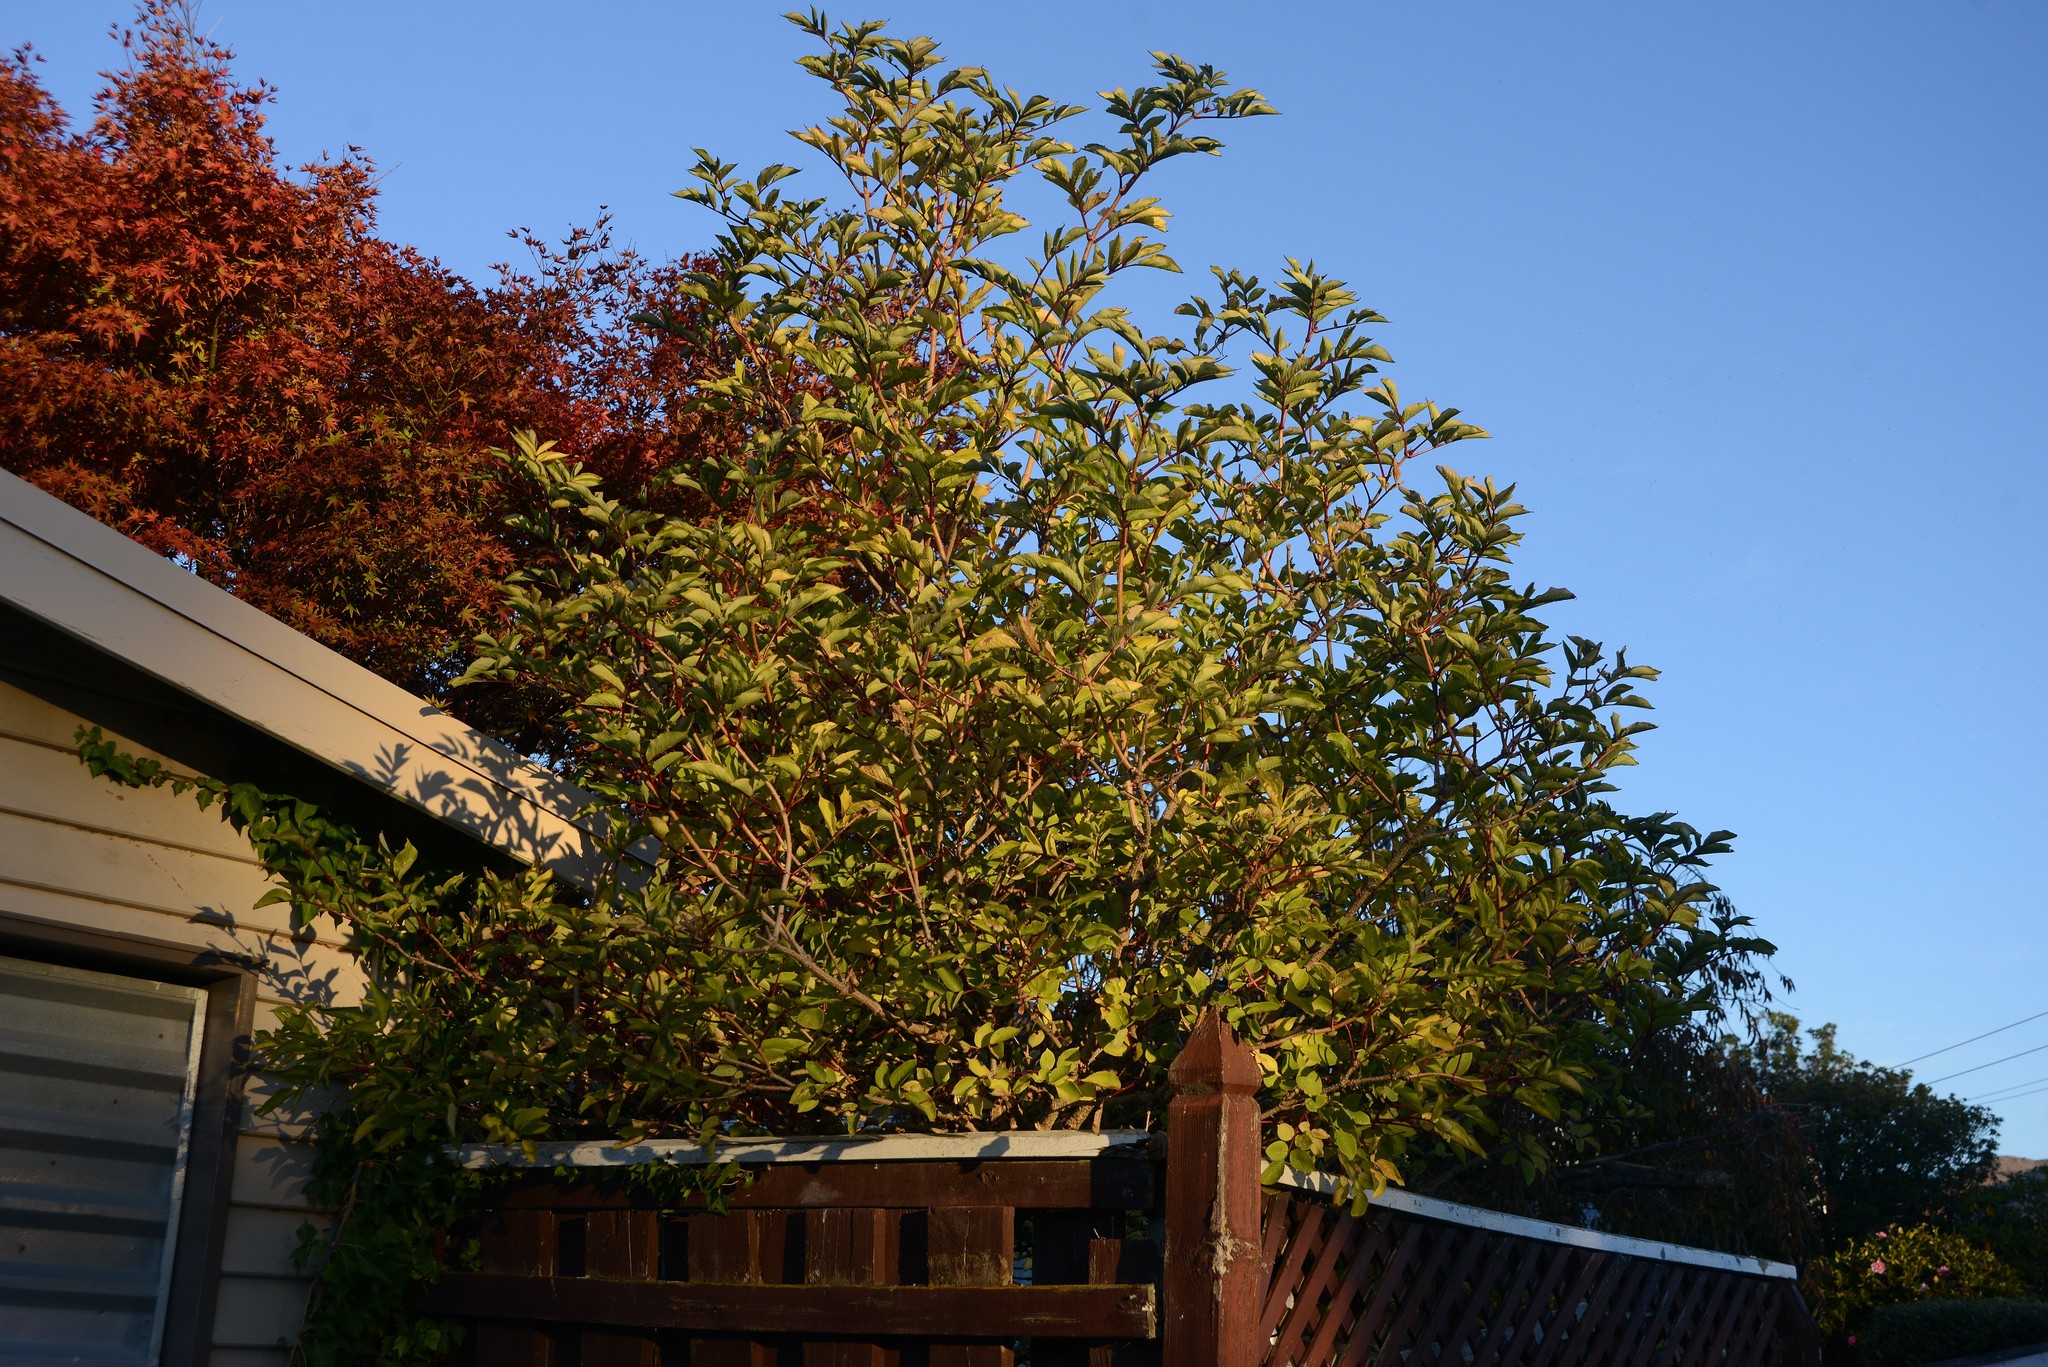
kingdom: Plantae
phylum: Tracheophyta
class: Magnoliopsida
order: Dipsacales
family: Viburnaceae
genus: Sambucus
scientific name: Sambucus nigra
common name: Elder
